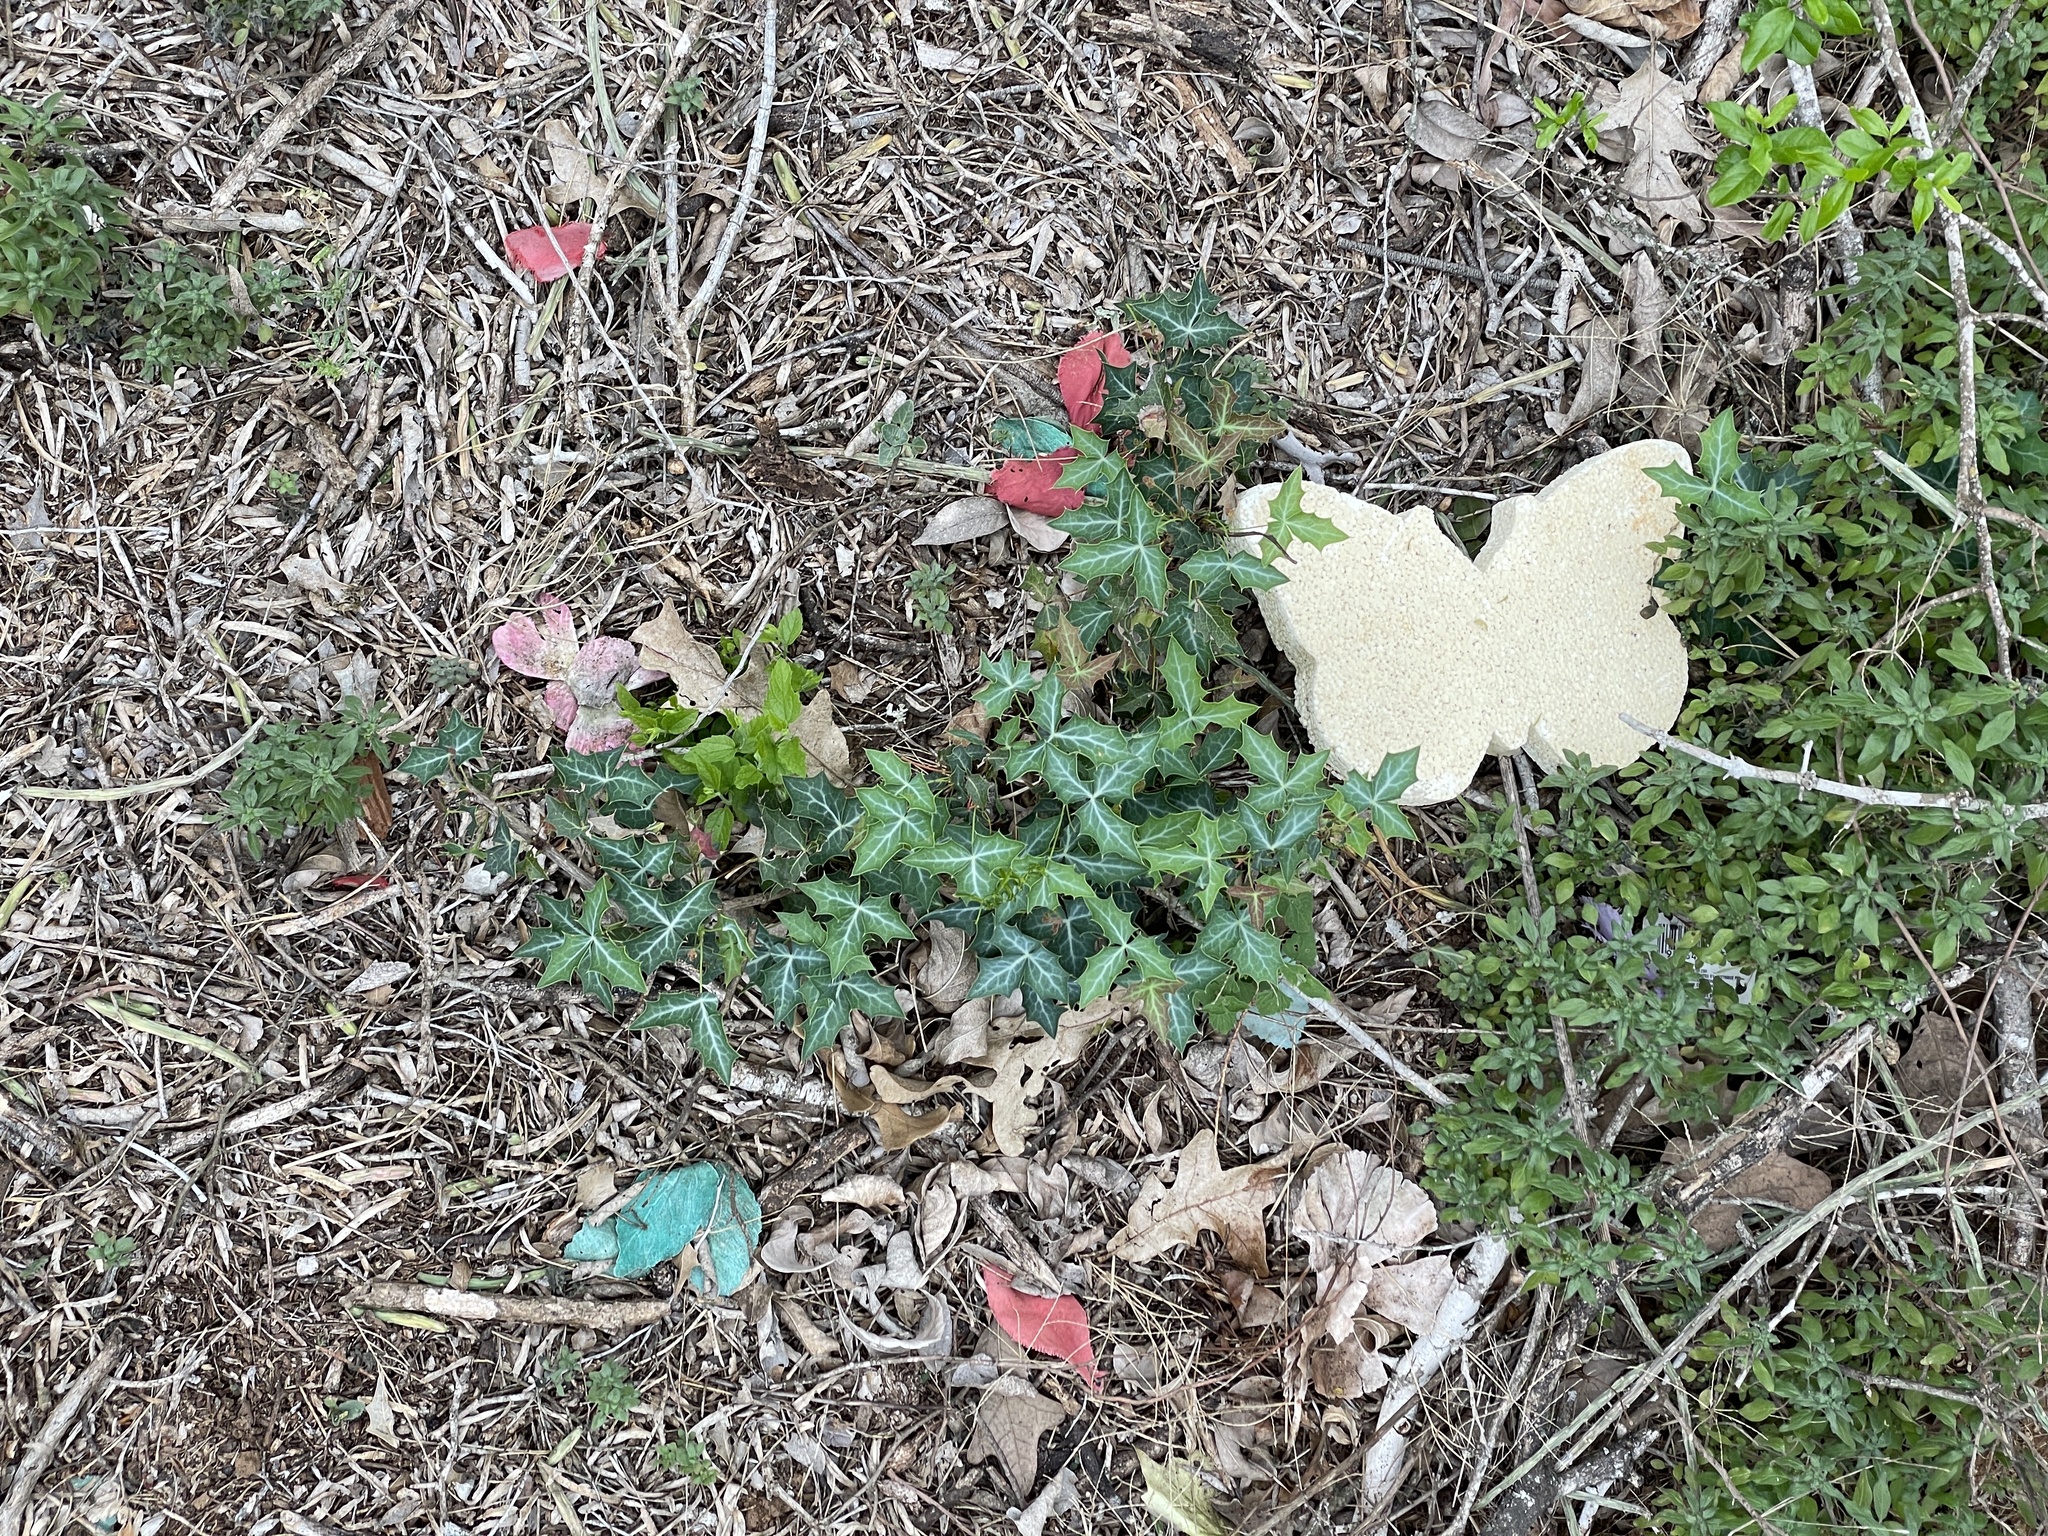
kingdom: Plantae
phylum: Tracheophyta
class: Magnoliopsida
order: Ranunculales
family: Berberidaceae
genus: Alloberberis
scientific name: Alloberberis trifoliolata
